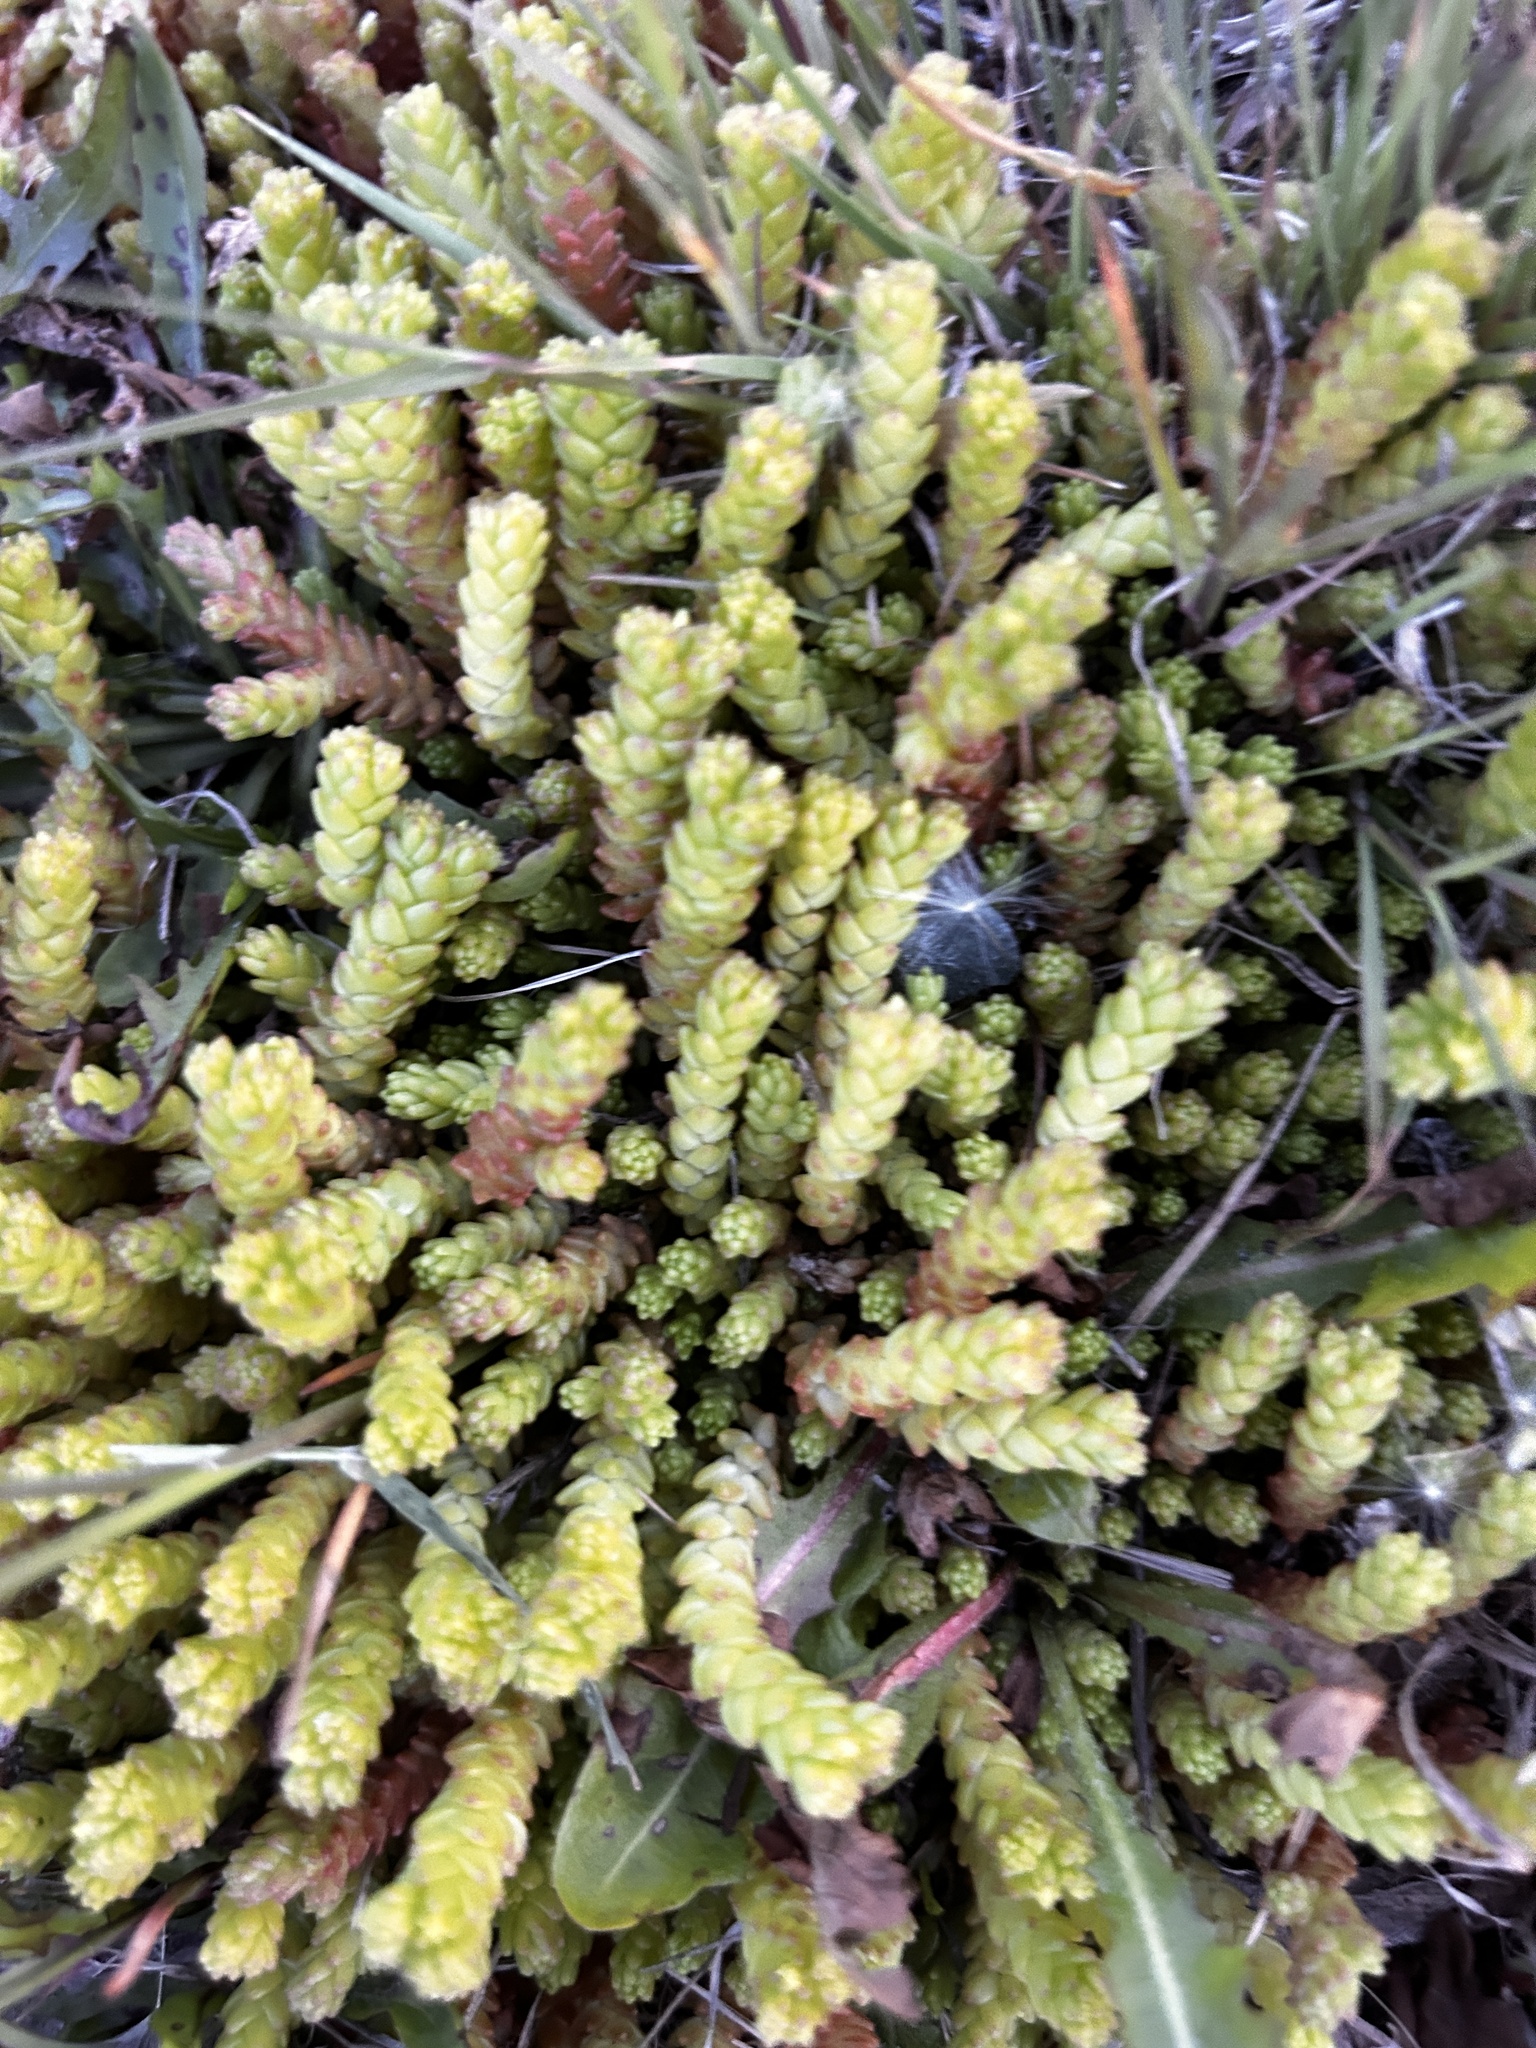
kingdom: Plantae
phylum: Tracheophyta
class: Magnoliopsida
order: Saxifragales
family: Crassulaceae
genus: Sedum
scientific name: Sedum acre
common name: Biting stonecrop
